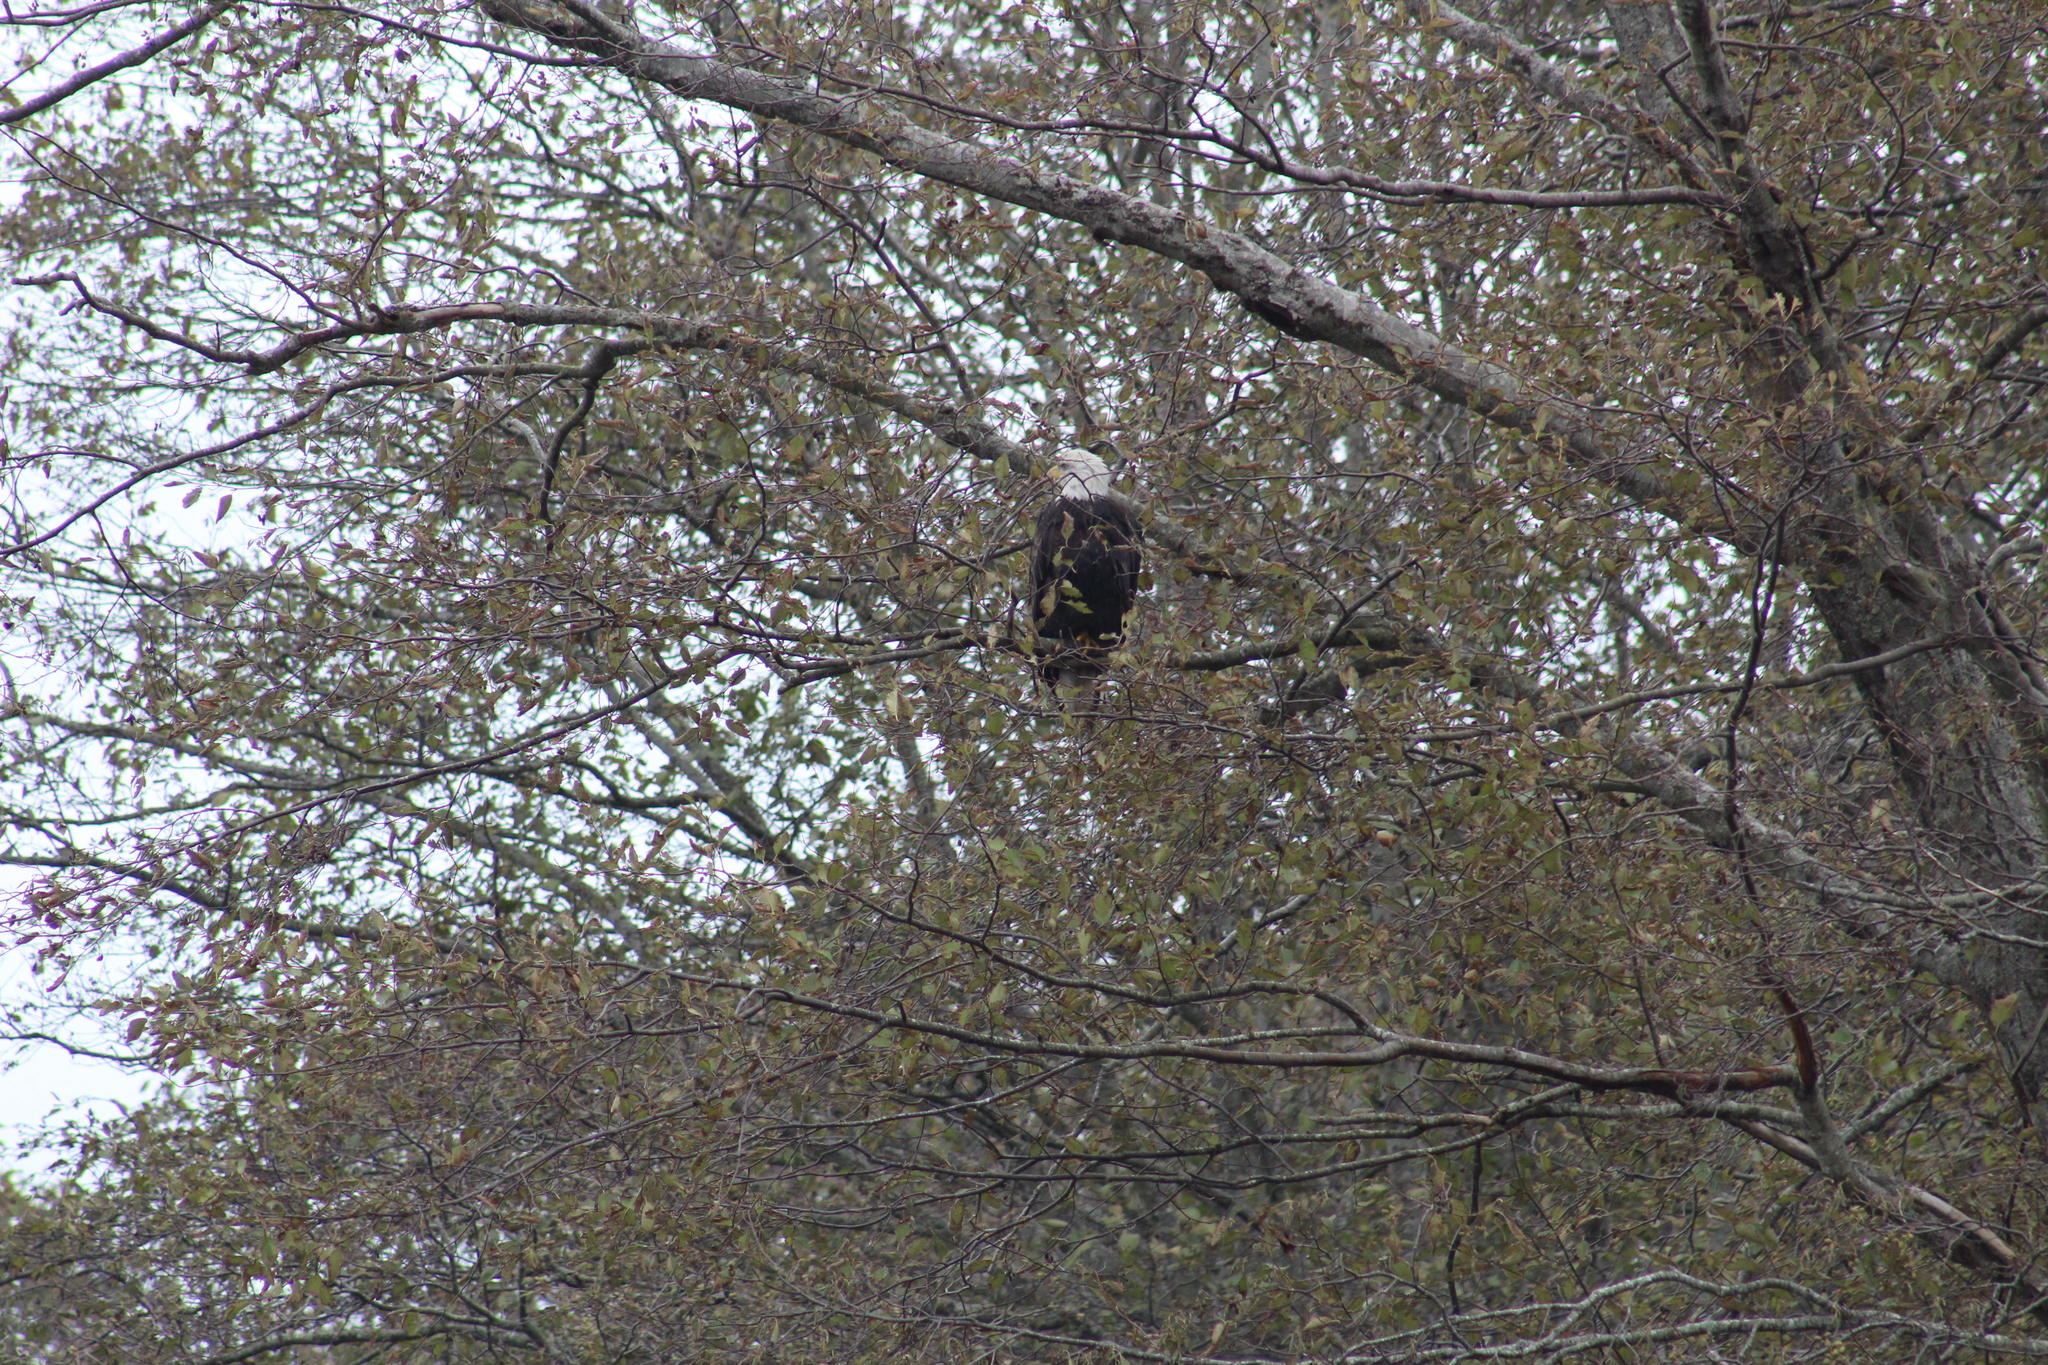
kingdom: Animalia
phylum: Chordata
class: Aves
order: Accipitriformes
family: Accipitridae
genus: Haliaeetus
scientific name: Haliaeetus leucocephalus
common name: Bald eagle
